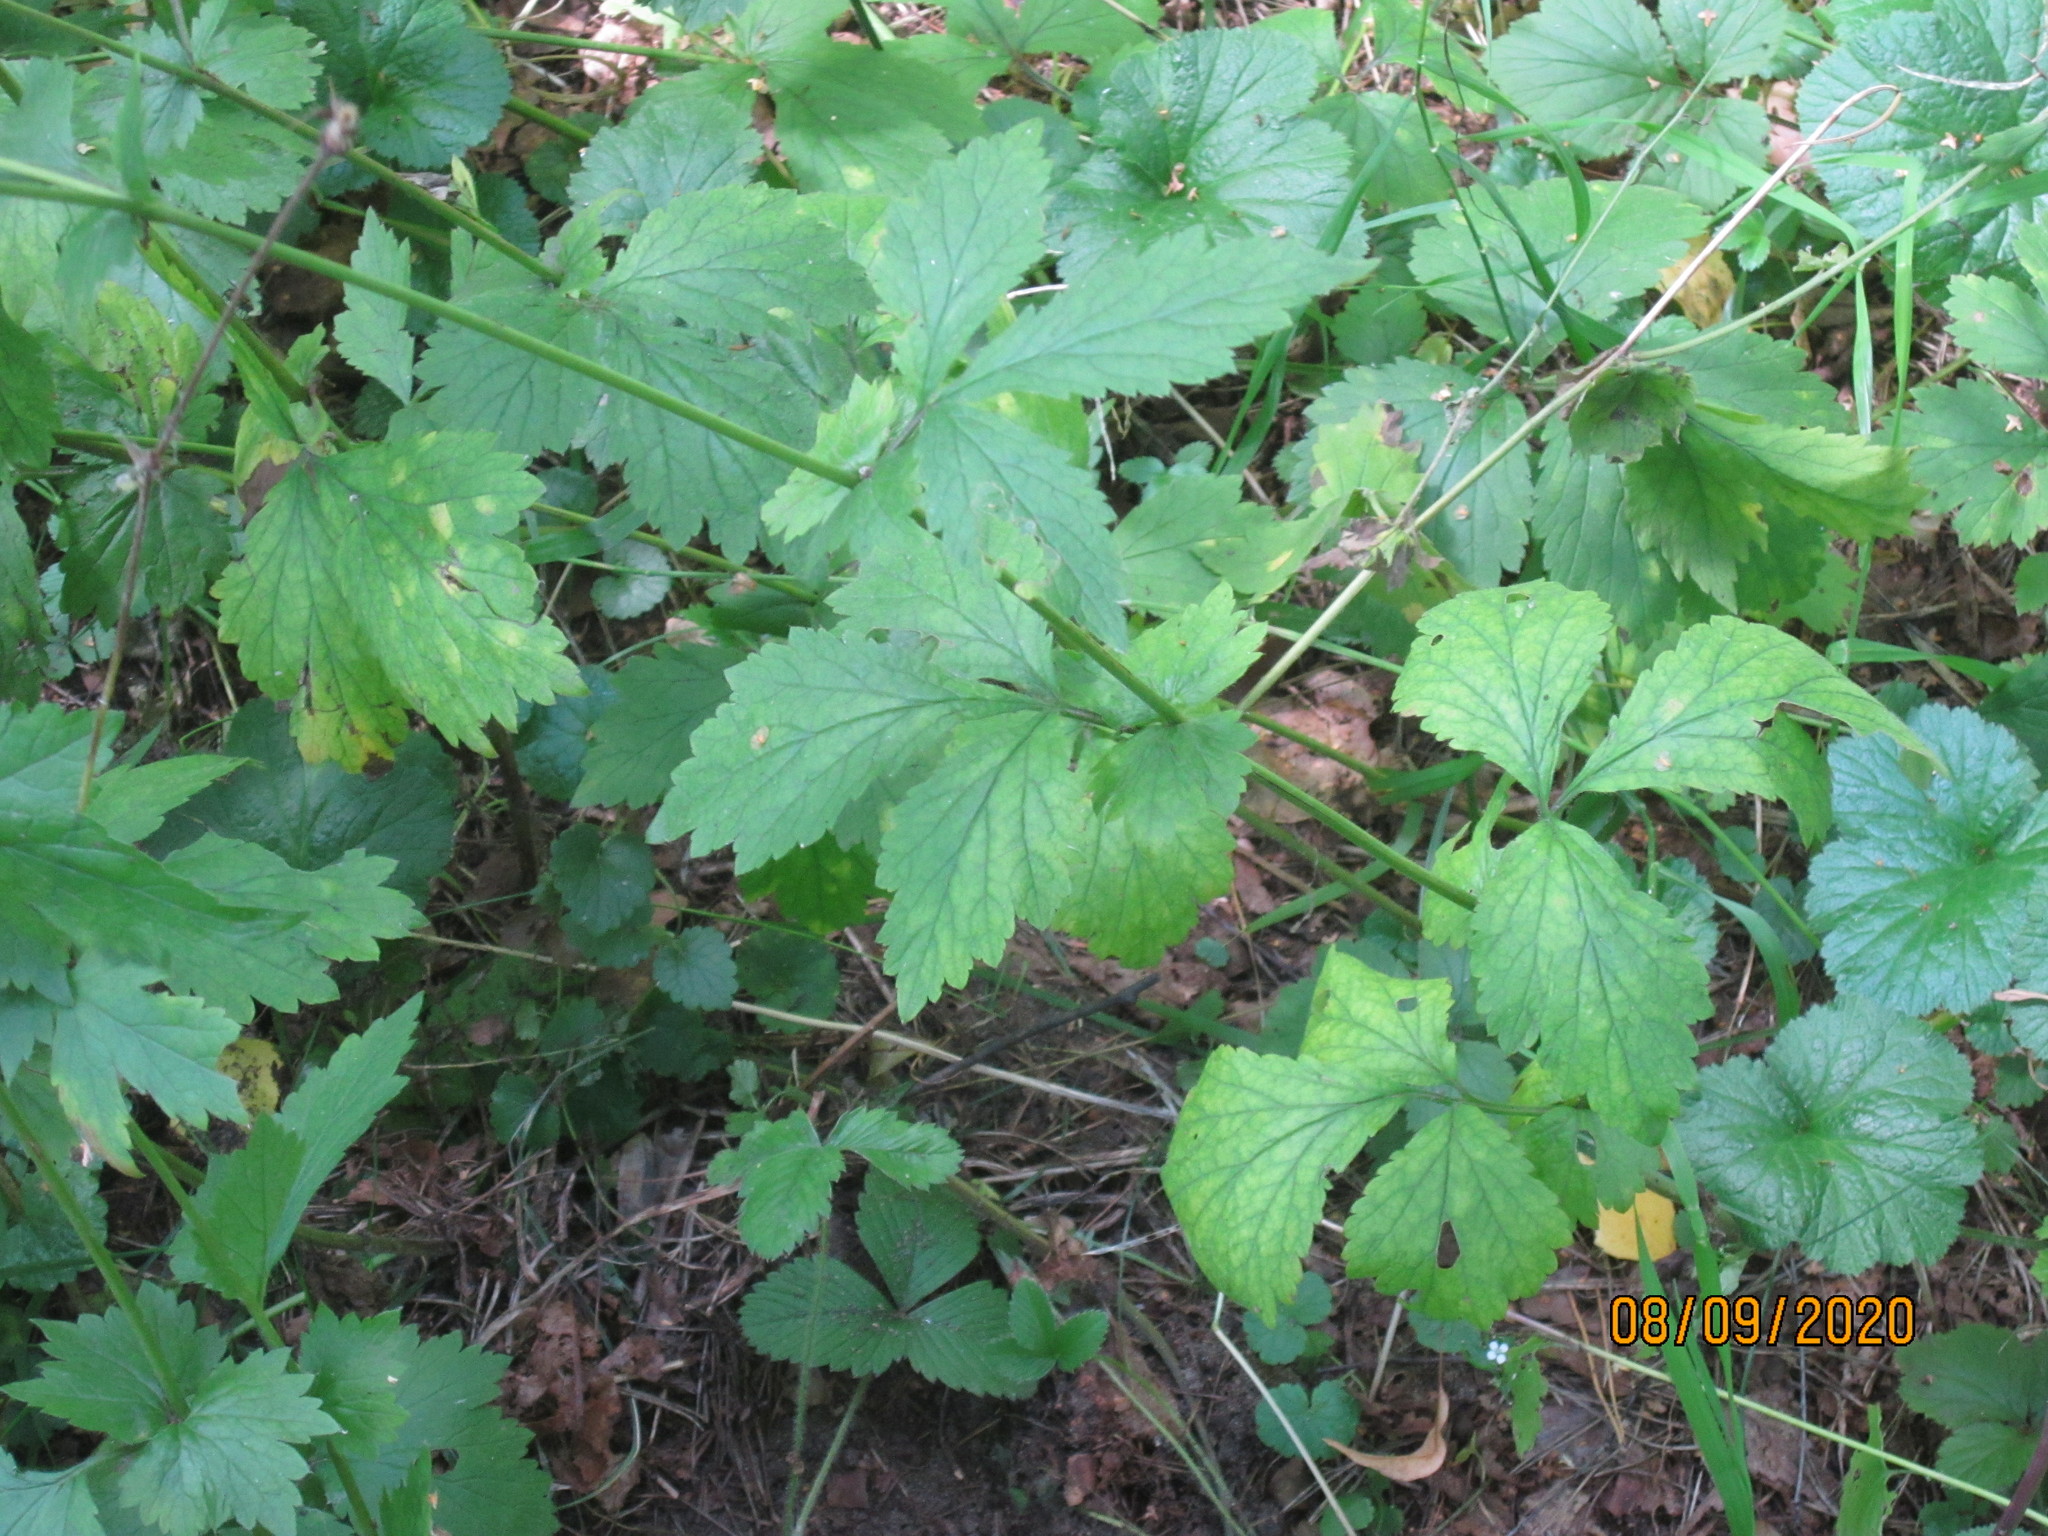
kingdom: Plantae
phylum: Tracheophyta
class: Magnoliopsida
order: Rosales
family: Rosaceae
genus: Geum
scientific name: Geum urbanum
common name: Wood avens
